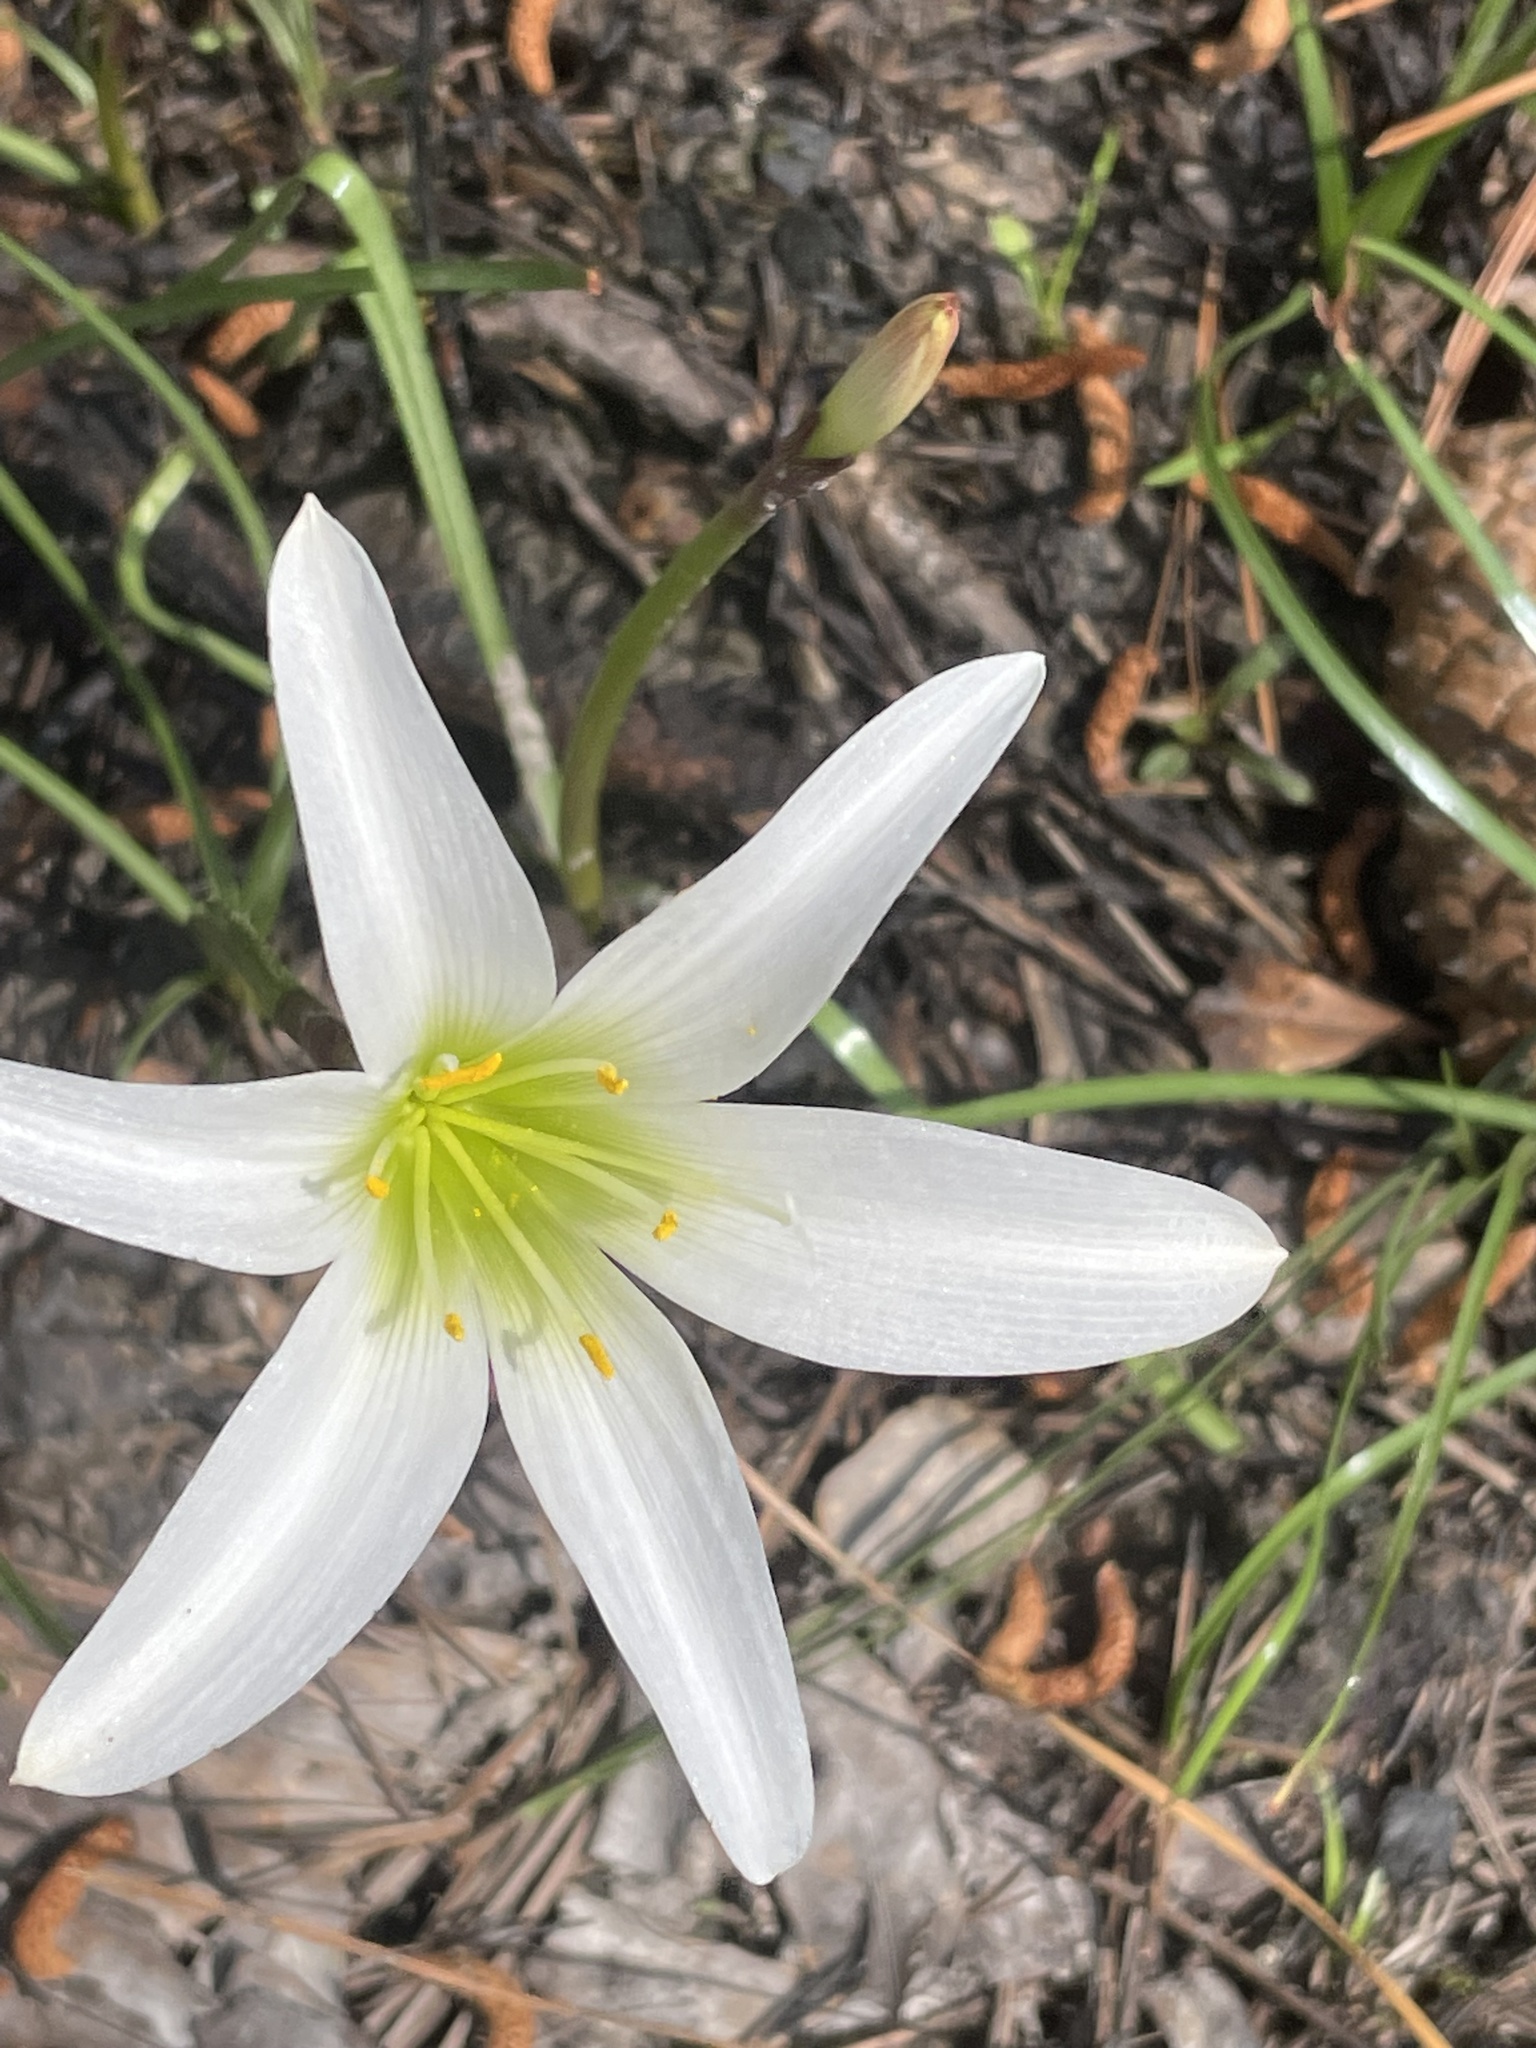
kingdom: Plantae
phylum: Tracheophyta
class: Liliopsida
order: Asparagales
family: Amaryllidaceae
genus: Zephyranthes
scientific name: Zephyranthes atamasco
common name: Atamasco lily
